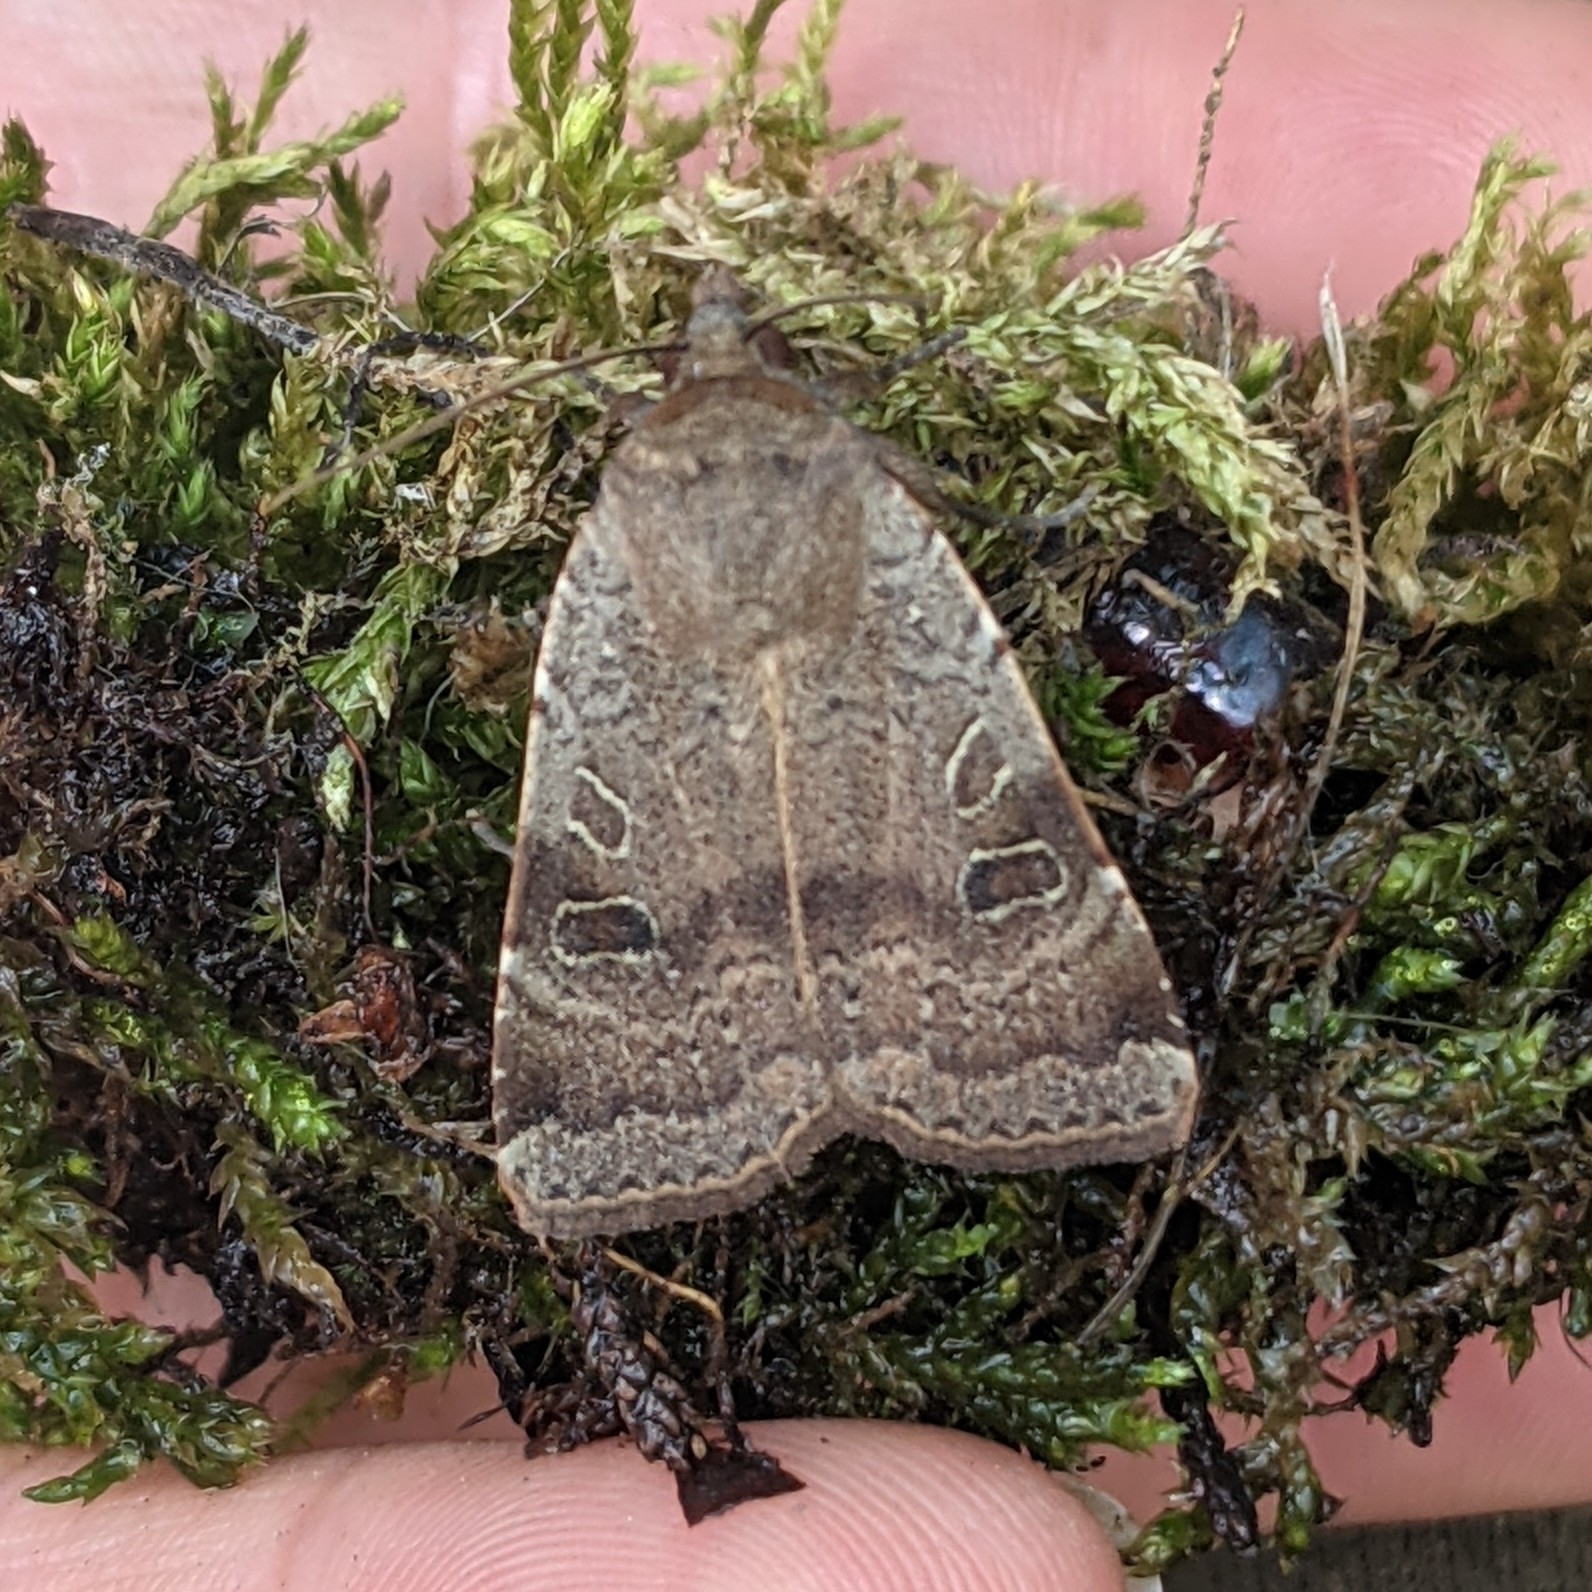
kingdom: Animalia
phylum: Arthropoda
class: Insecta
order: Lepidoptera
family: Noctuidae
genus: Noctua
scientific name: Noctua comes
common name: Lesser yellow underwing
